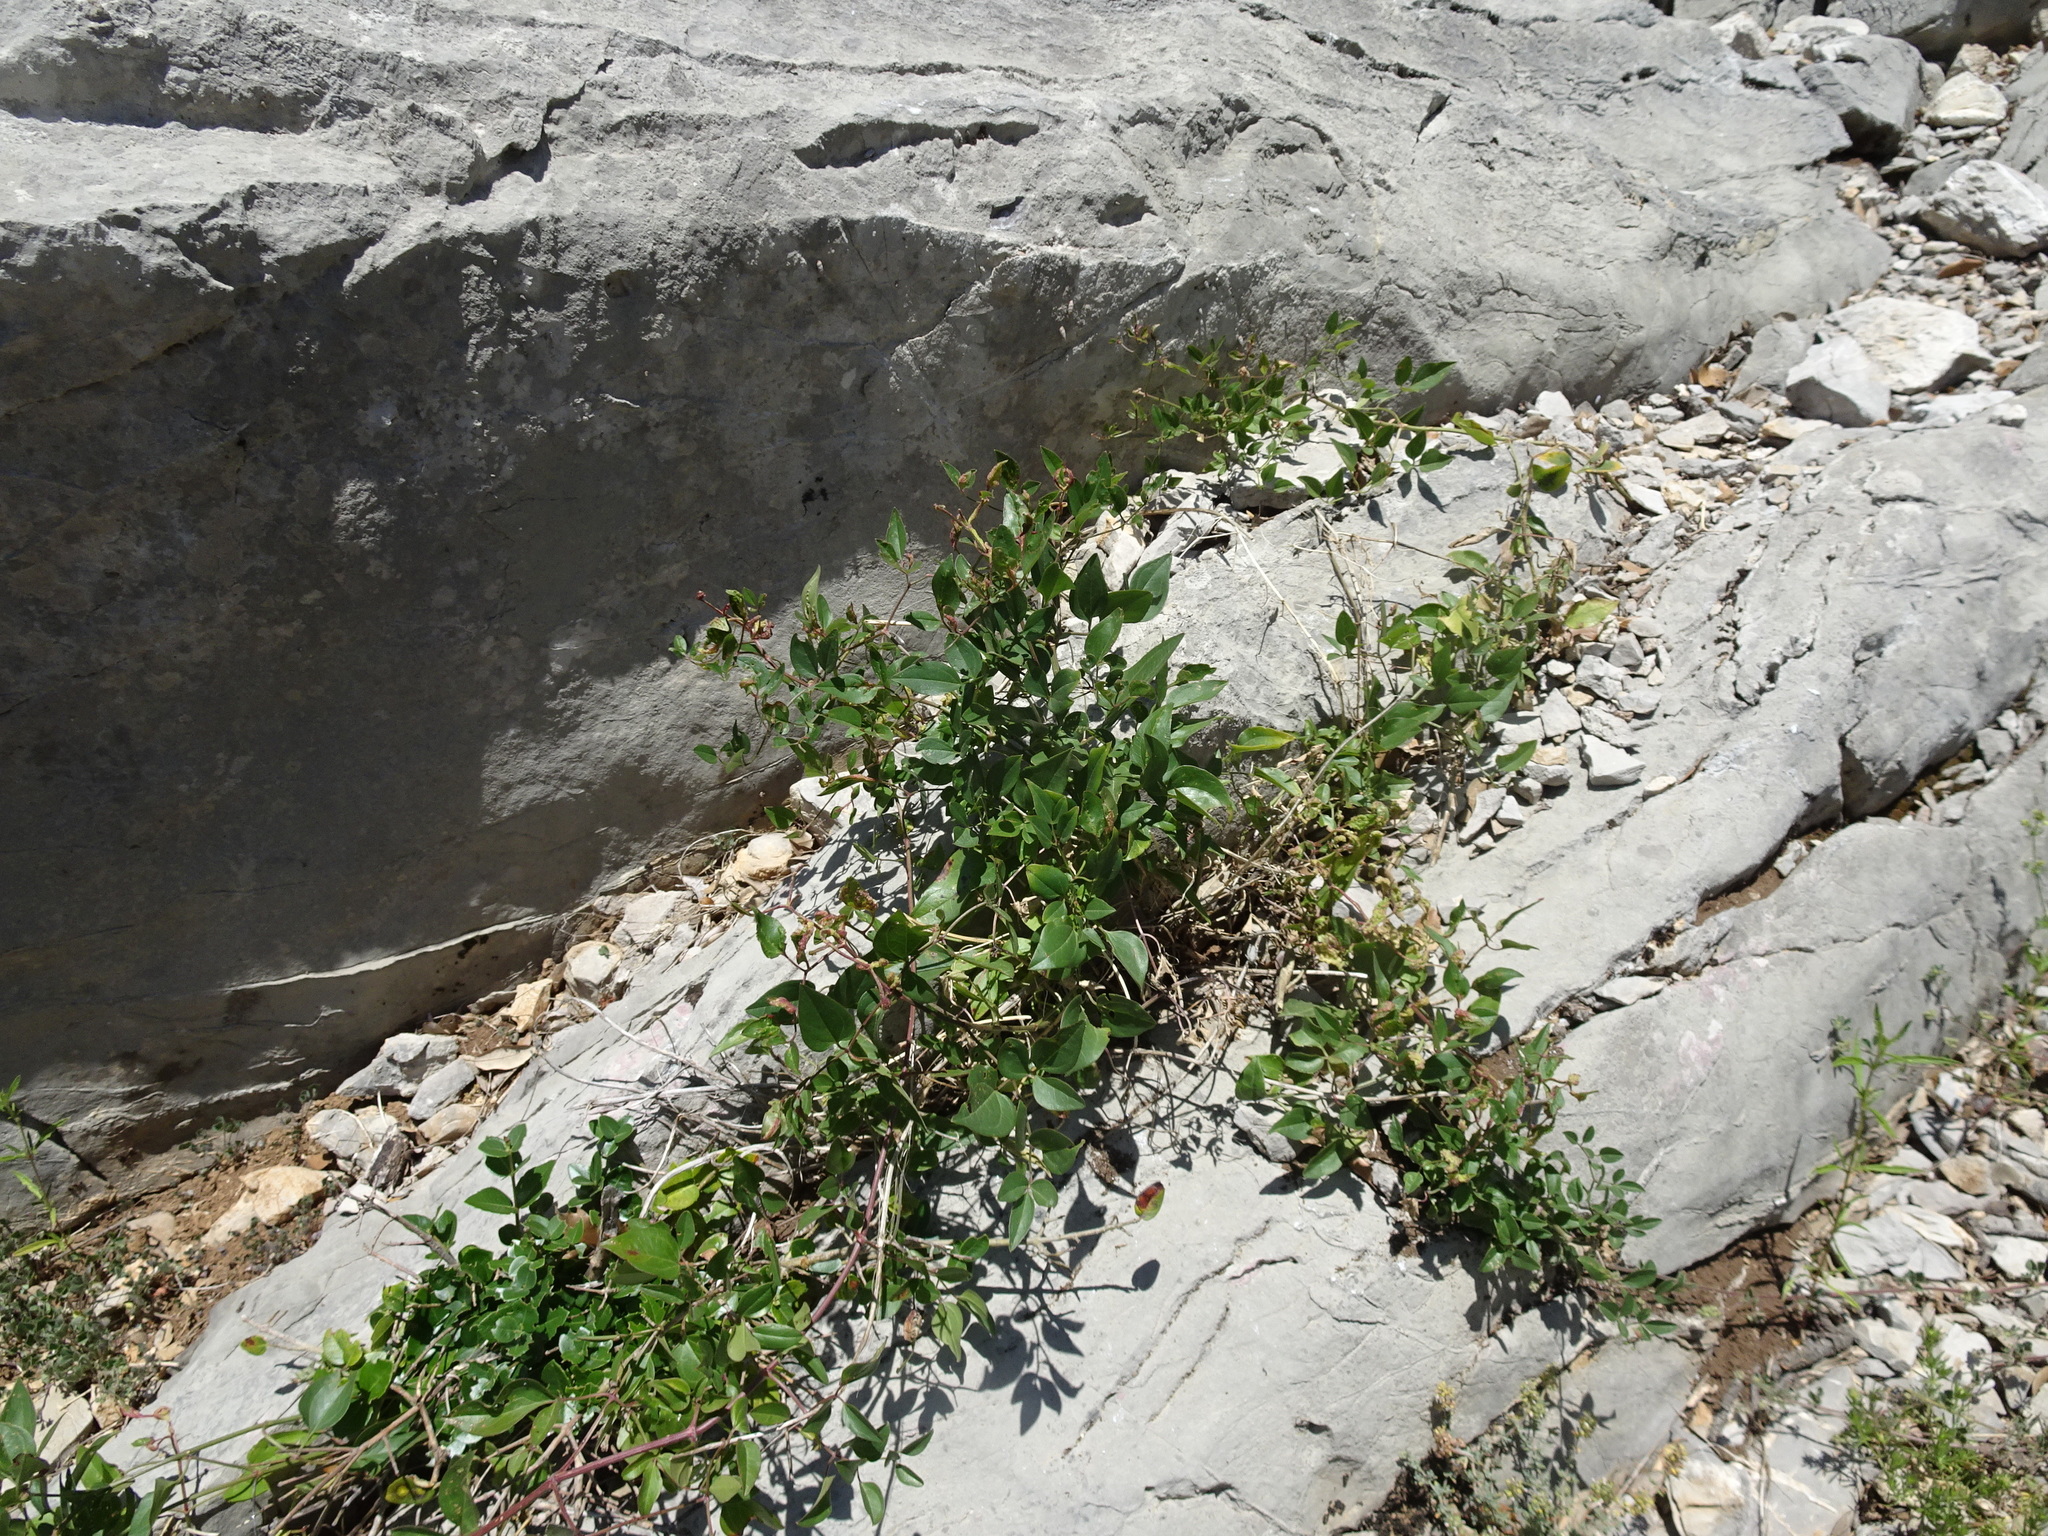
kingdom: Plantae
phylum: Tracheophyta
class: Magnoliopsida
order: Ranunculales
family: Ranunculaceae
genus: Clematis
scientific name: Clematis flammula
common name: Virgin's-bower
